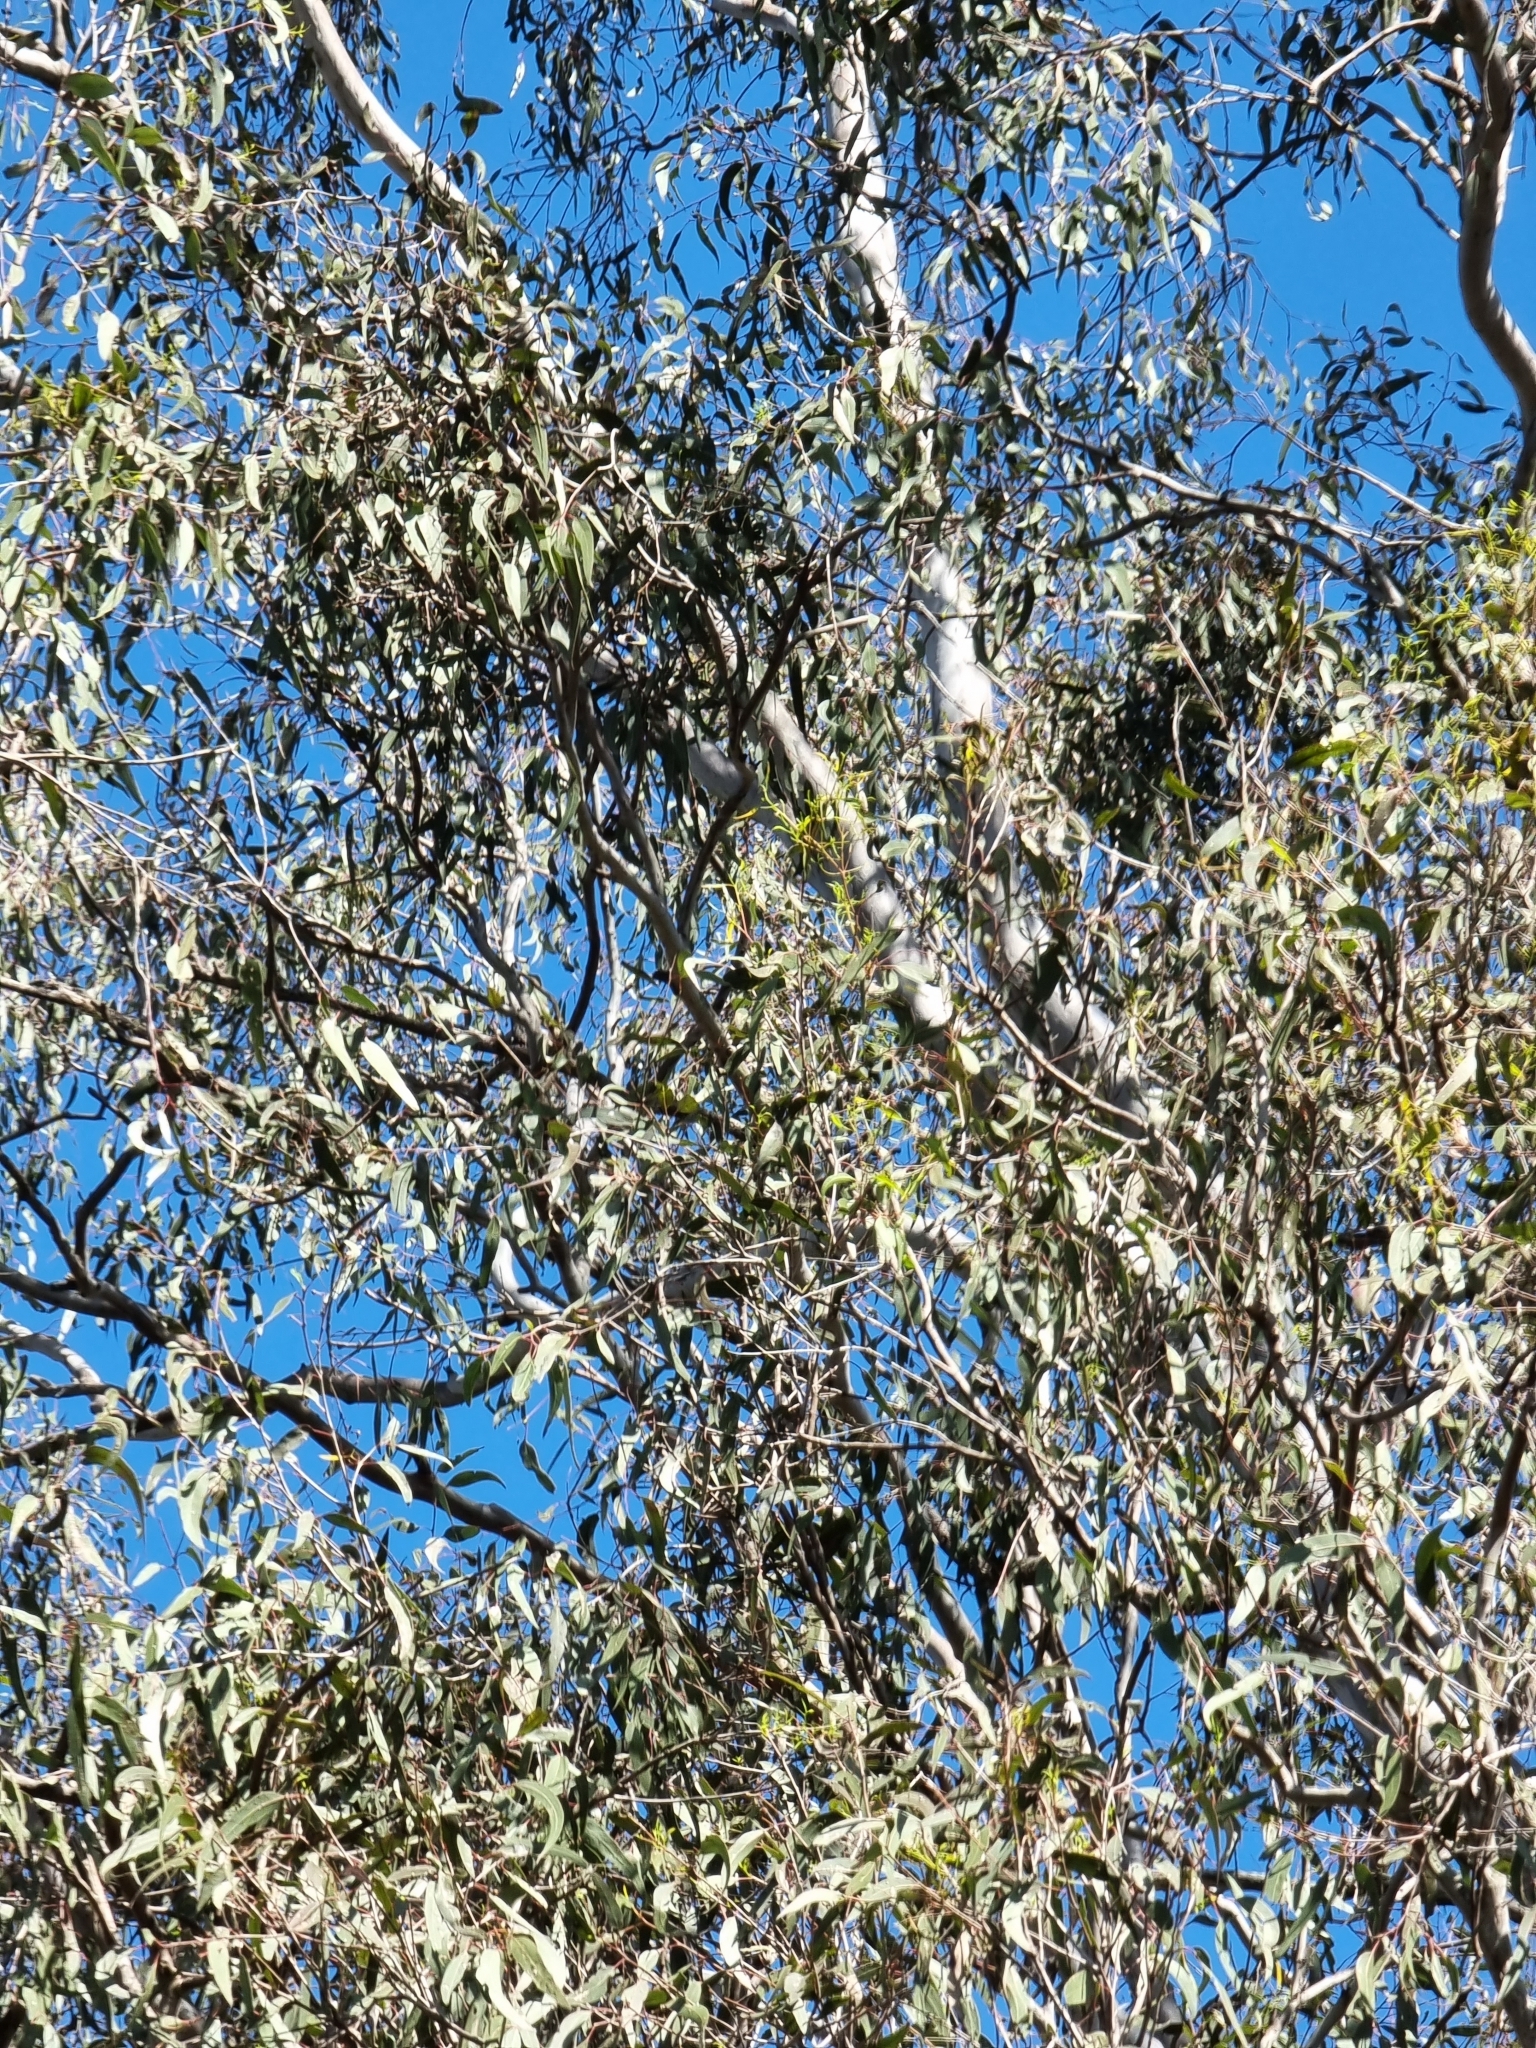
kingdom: Plantae
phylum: Tracheophyta
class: Magnoliopsida
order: Myrtales
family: Myrtaceae
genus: Eucalyptus
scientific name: Eucalyptus tereticornis
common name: Forest redgum
